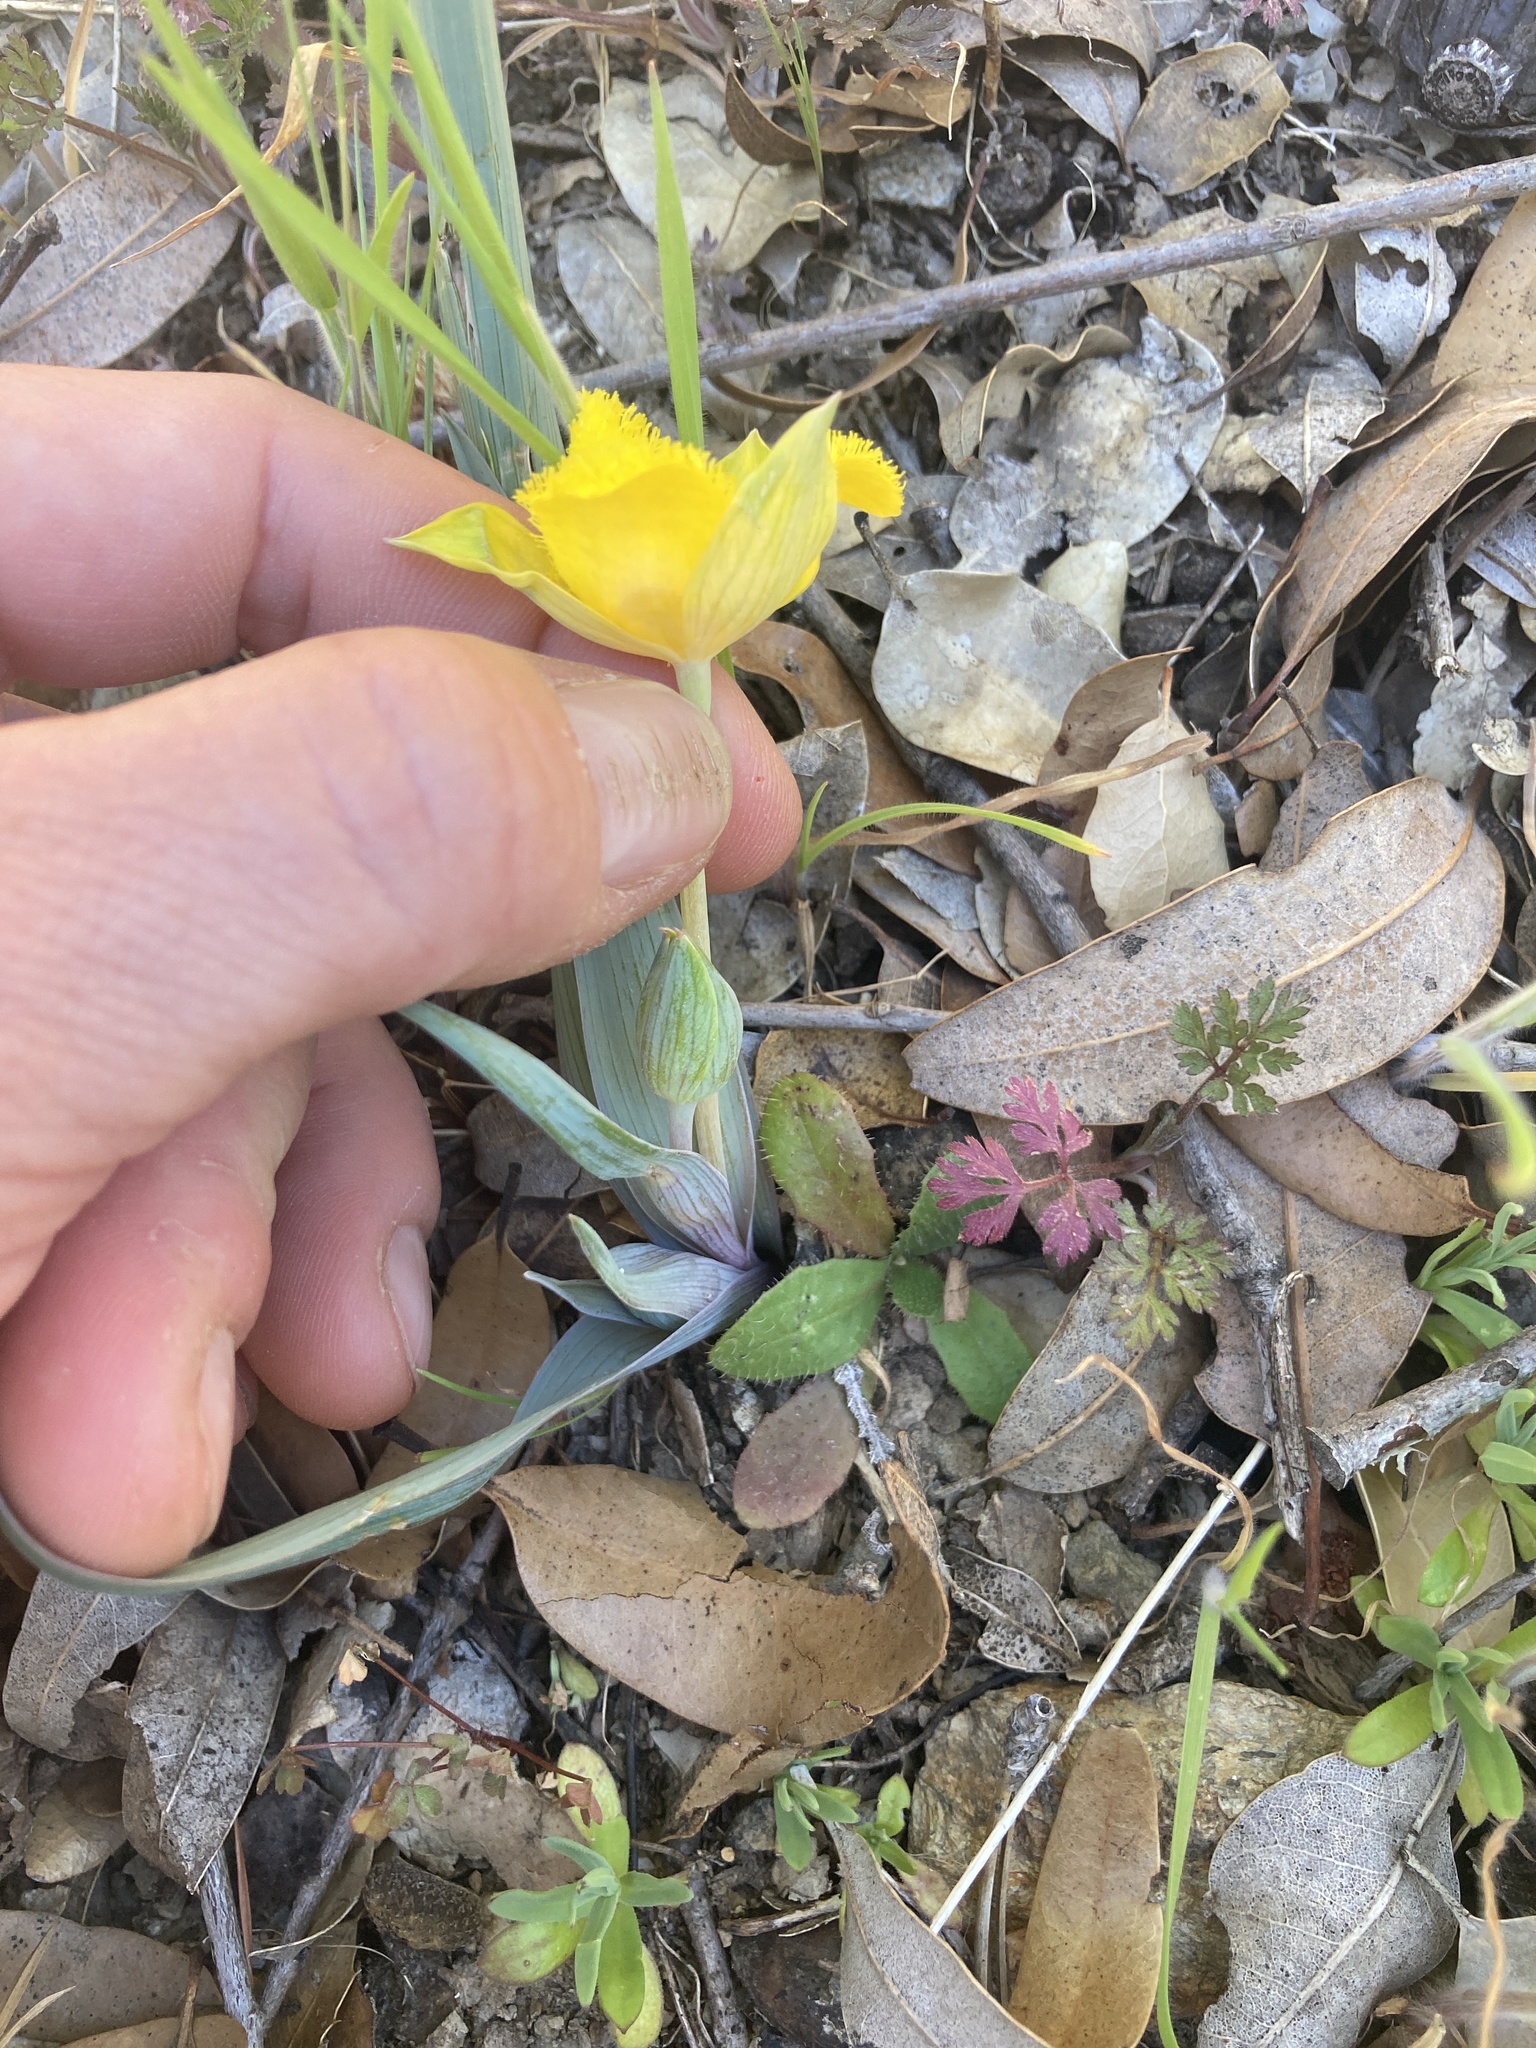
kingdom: Plantae
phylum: Tracheophyta
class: Liliopsida
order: Liliales
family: Liliaceae
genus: Calochortus
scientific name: Calochortus monophyllus
